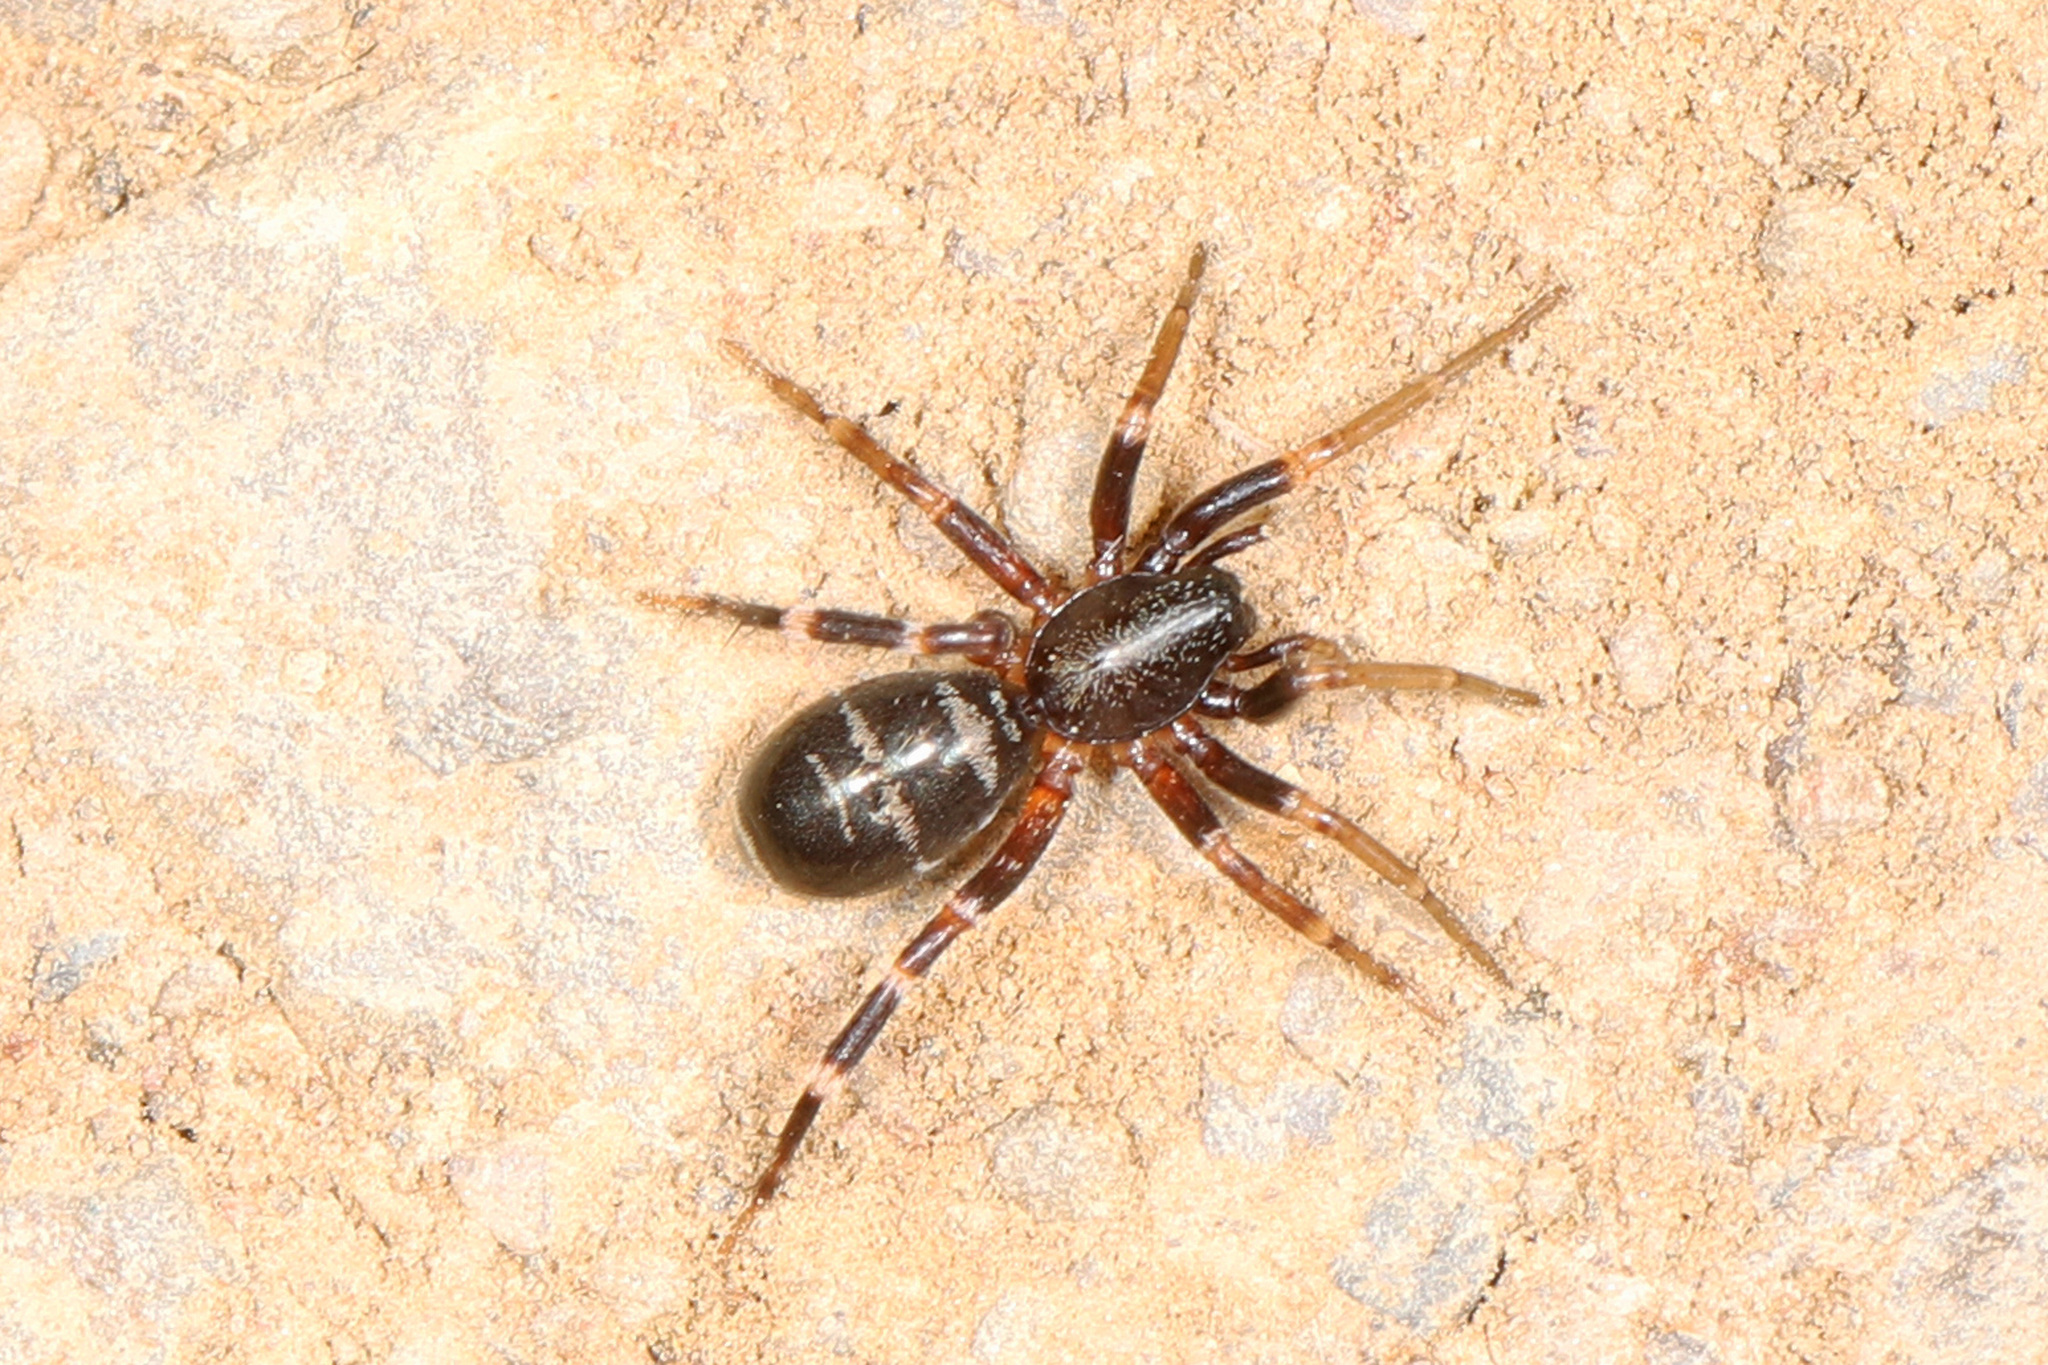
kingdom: Animalia
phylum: Arthropoda
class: Arachnida
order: Araneae
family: Corinnidae
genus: Castianeira
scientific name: Castianeira longipalpa
